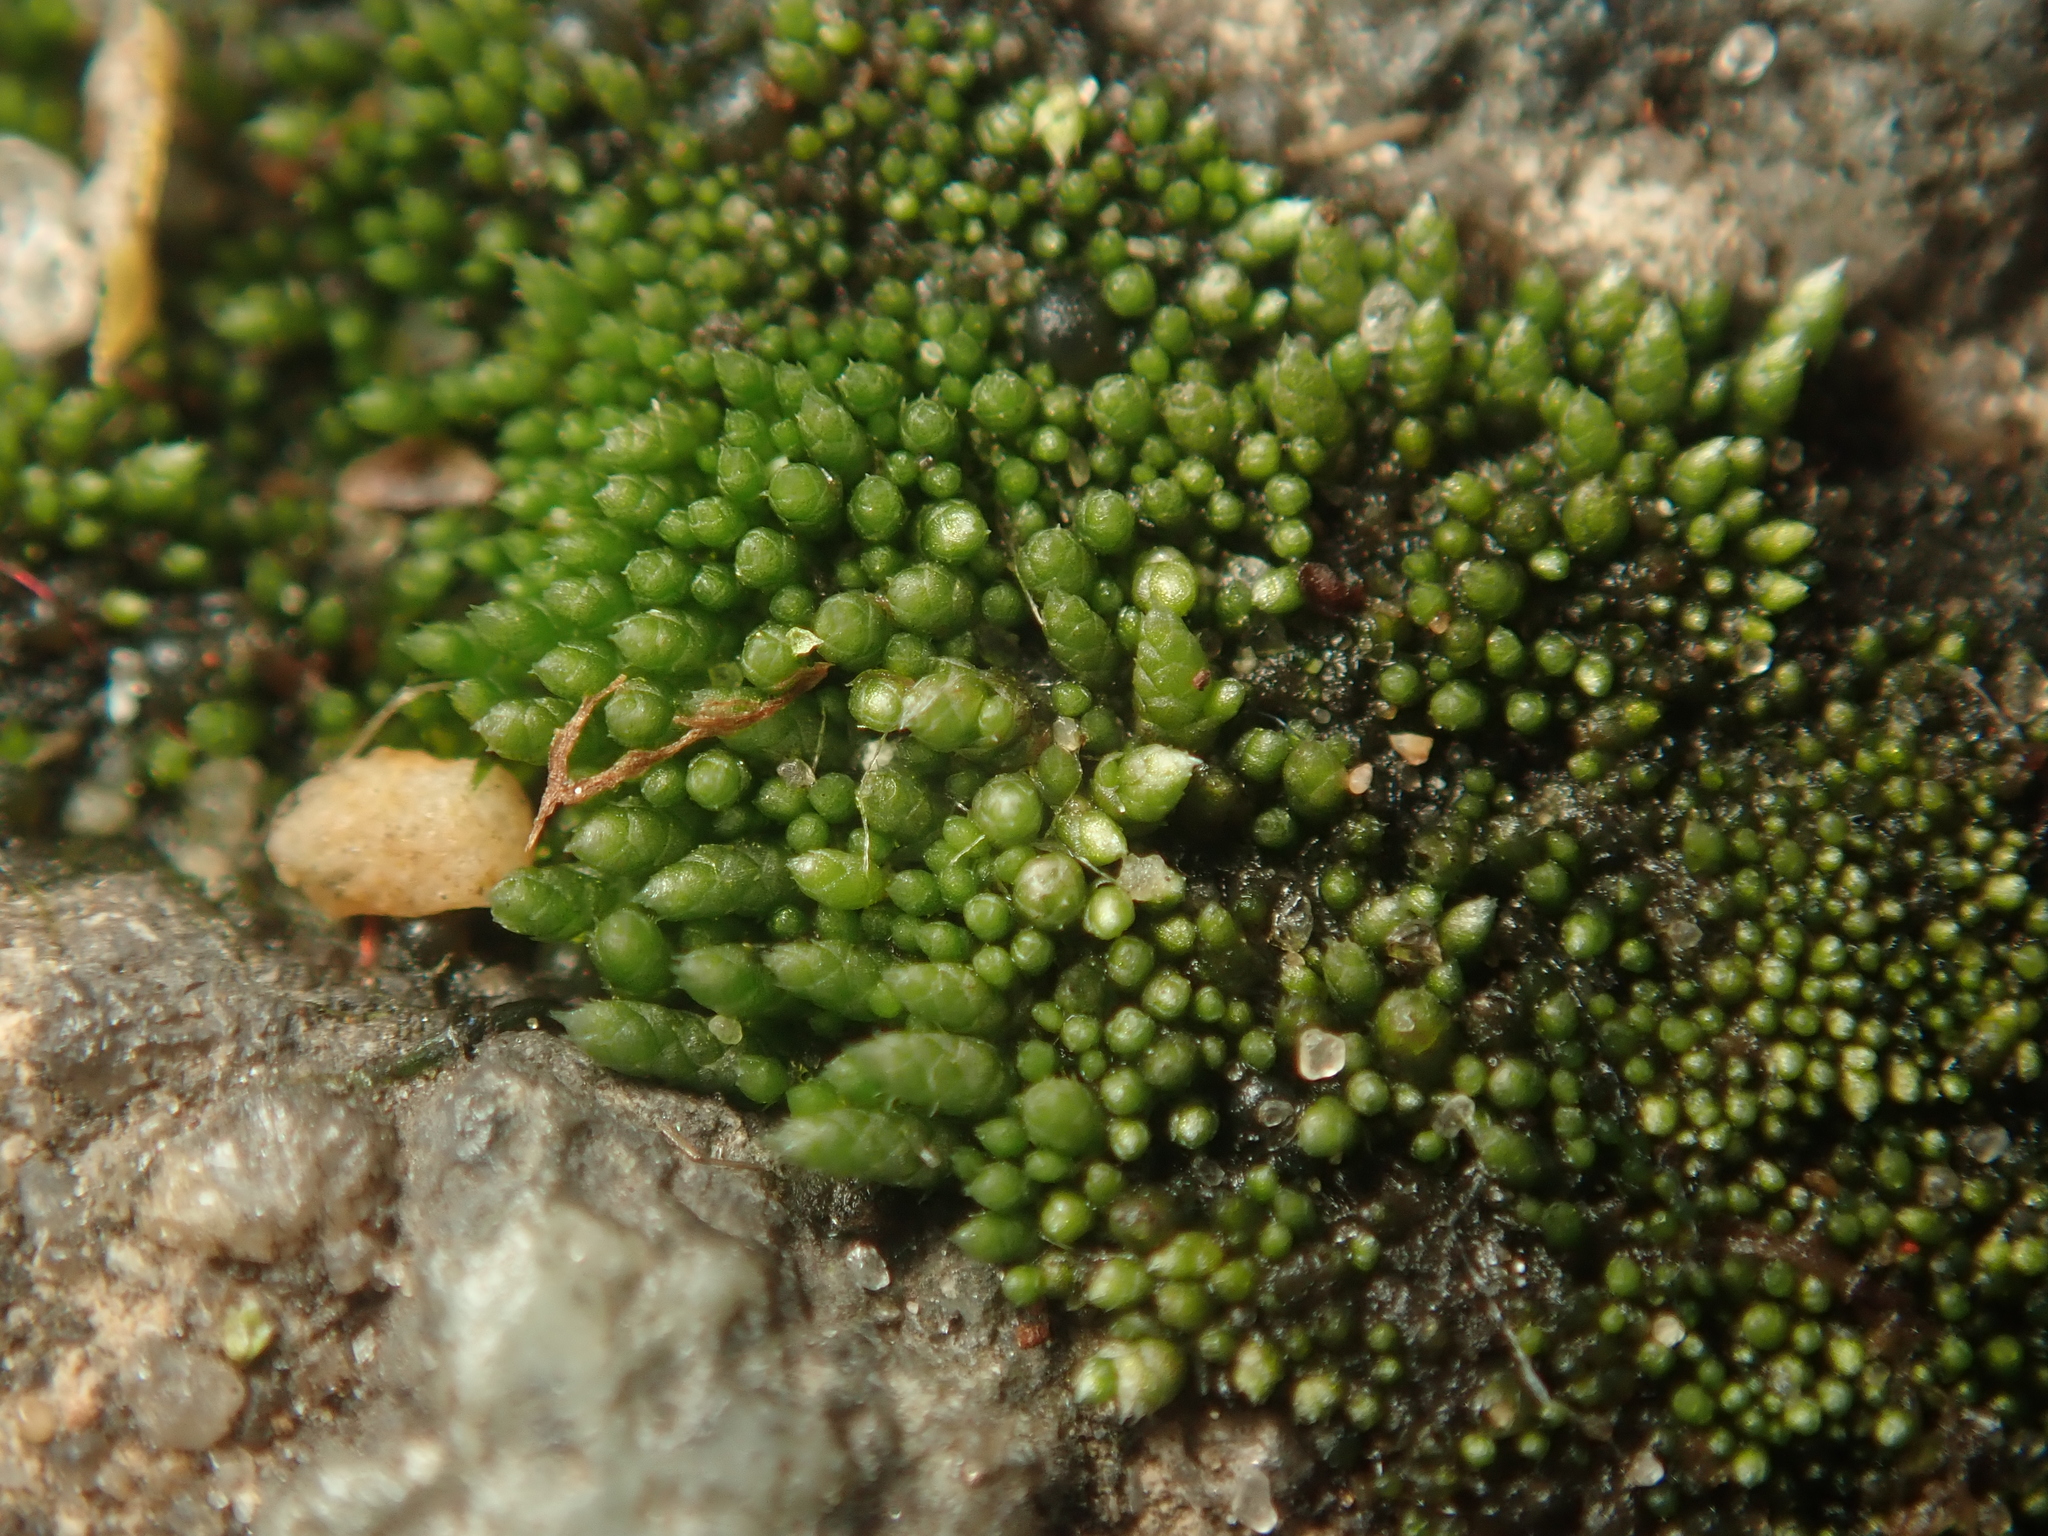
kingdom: Plantae
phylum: Bryophyta
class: Bryopsida
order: Bryales
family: Bryaceae
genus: Bryum
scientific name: Bryum argenteum
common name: Silver-moss
